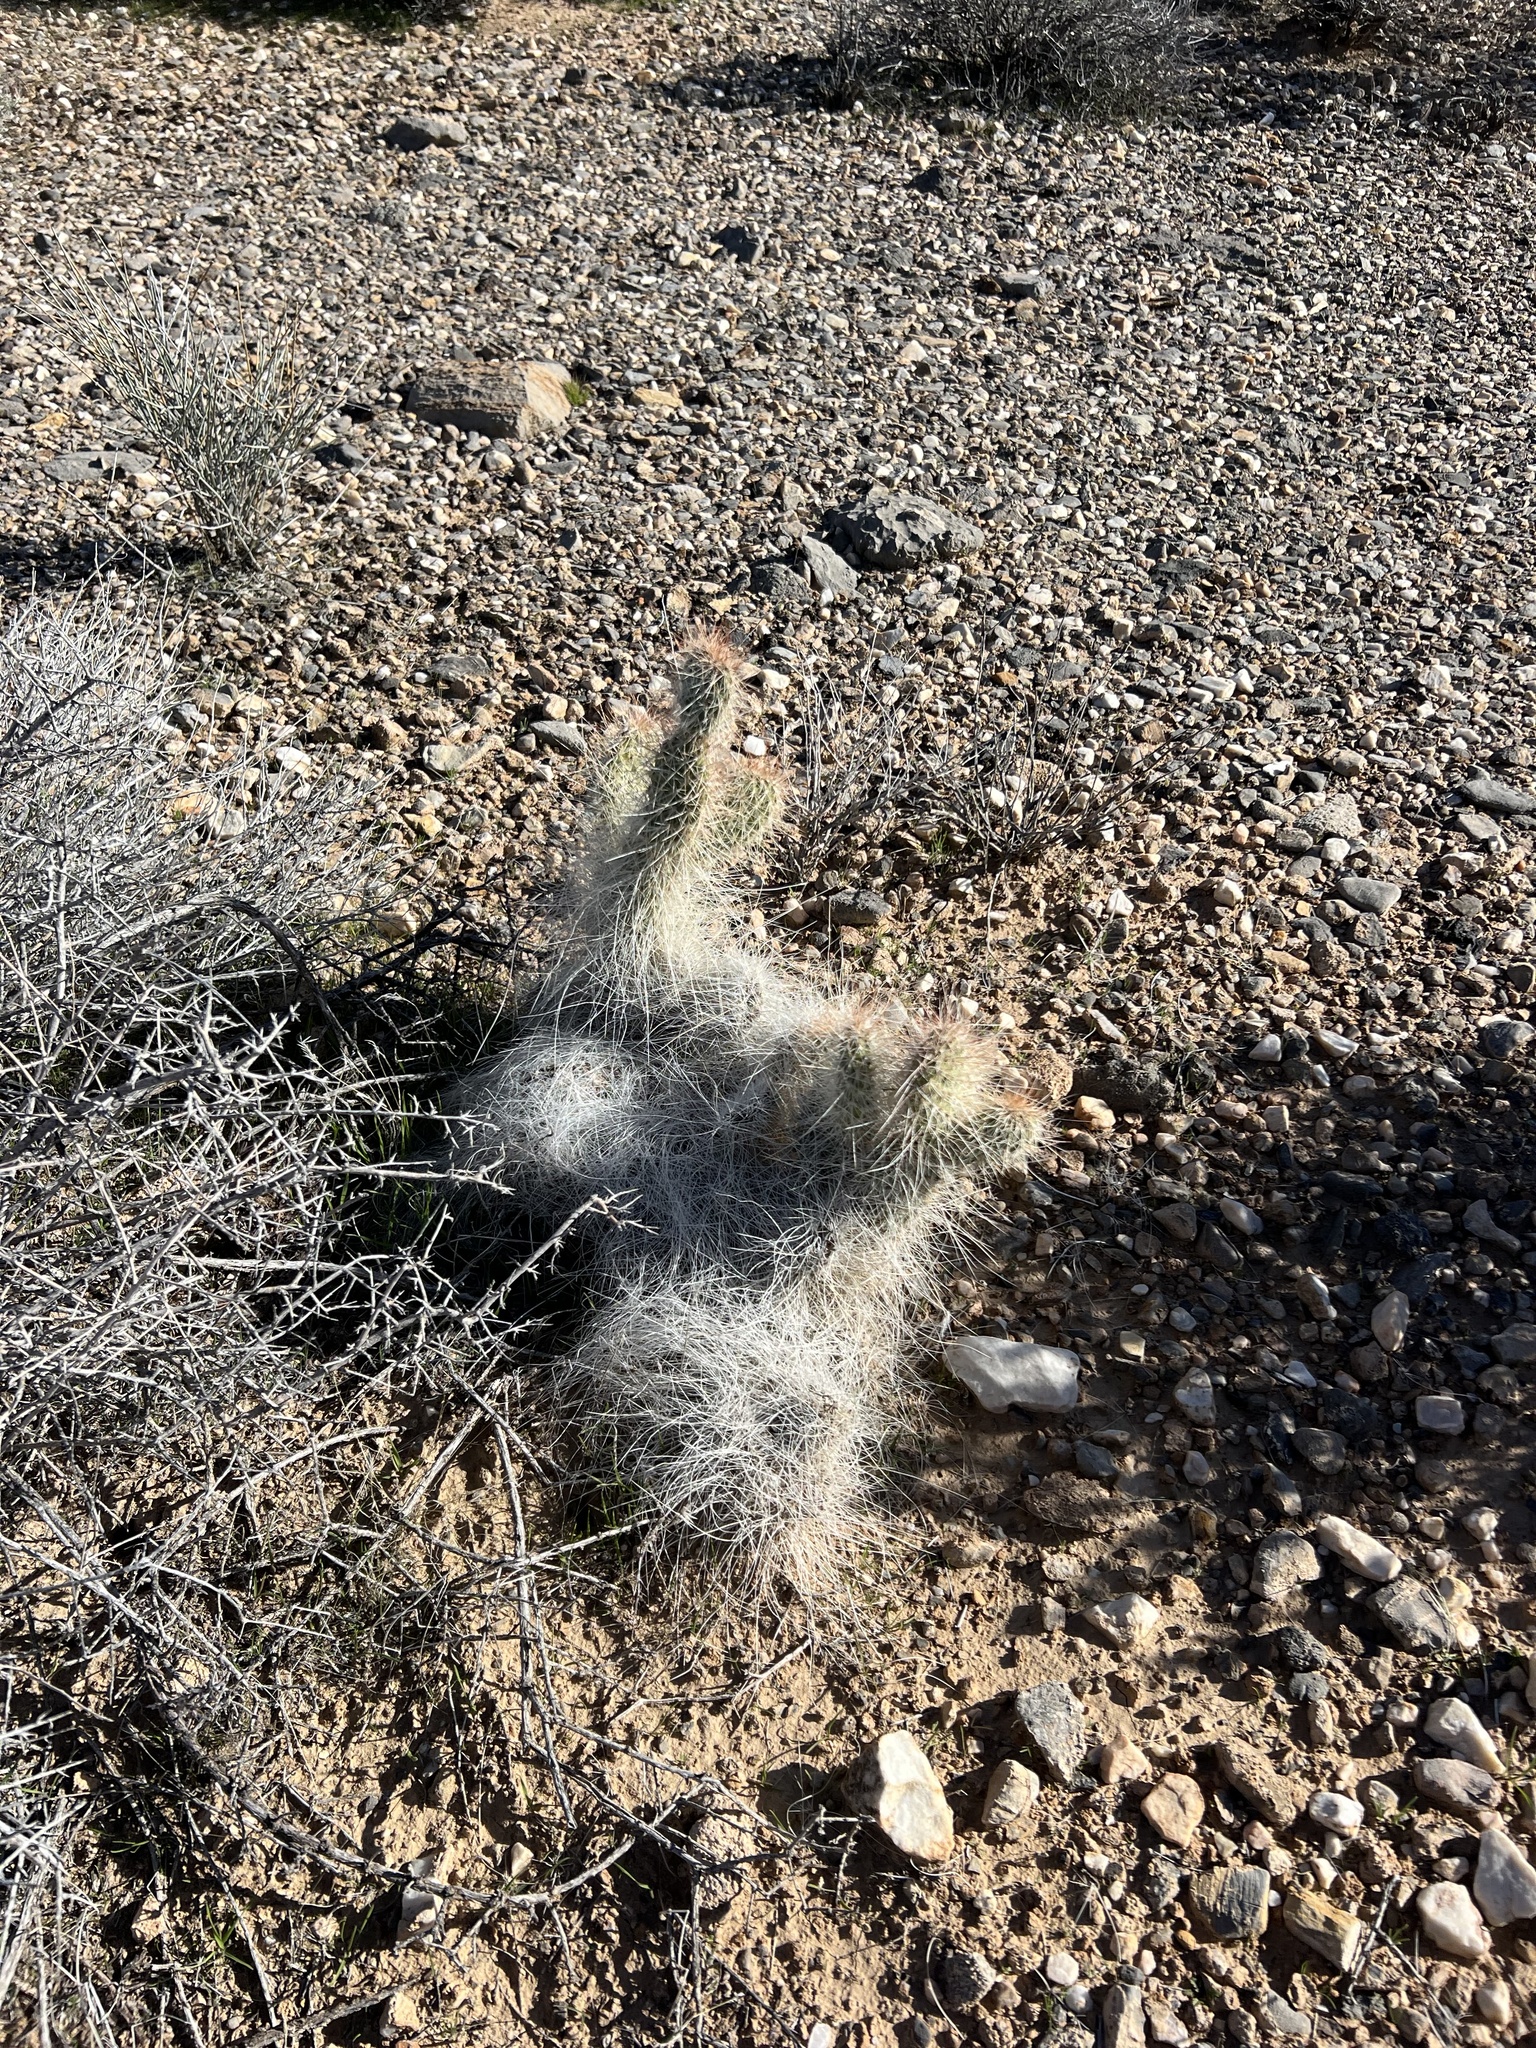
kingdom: Plantae
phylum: Tracheophyta
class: Magnoliopsida
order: Caryophyllales
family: Cactaceae
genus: Opuntia
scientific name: Opuntia polyacantha
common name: Plains prickly-pear
